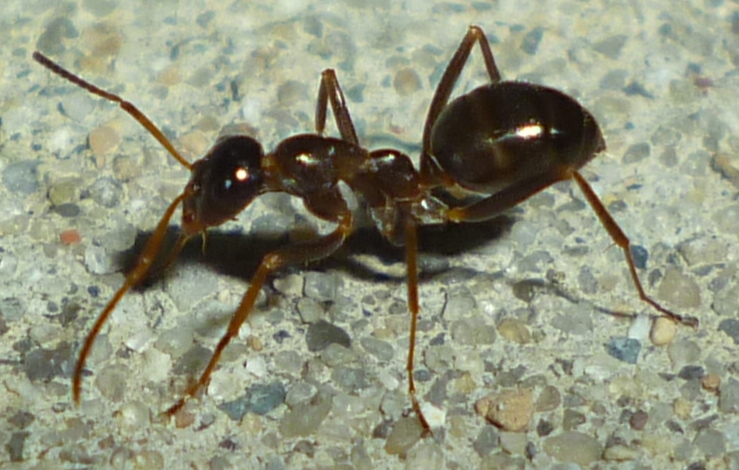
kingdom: Animalia
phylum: Arthropoda
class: Insecta
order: Hymenoptera
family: Formicidae
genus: Formica
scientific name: Formica pallidefulva
